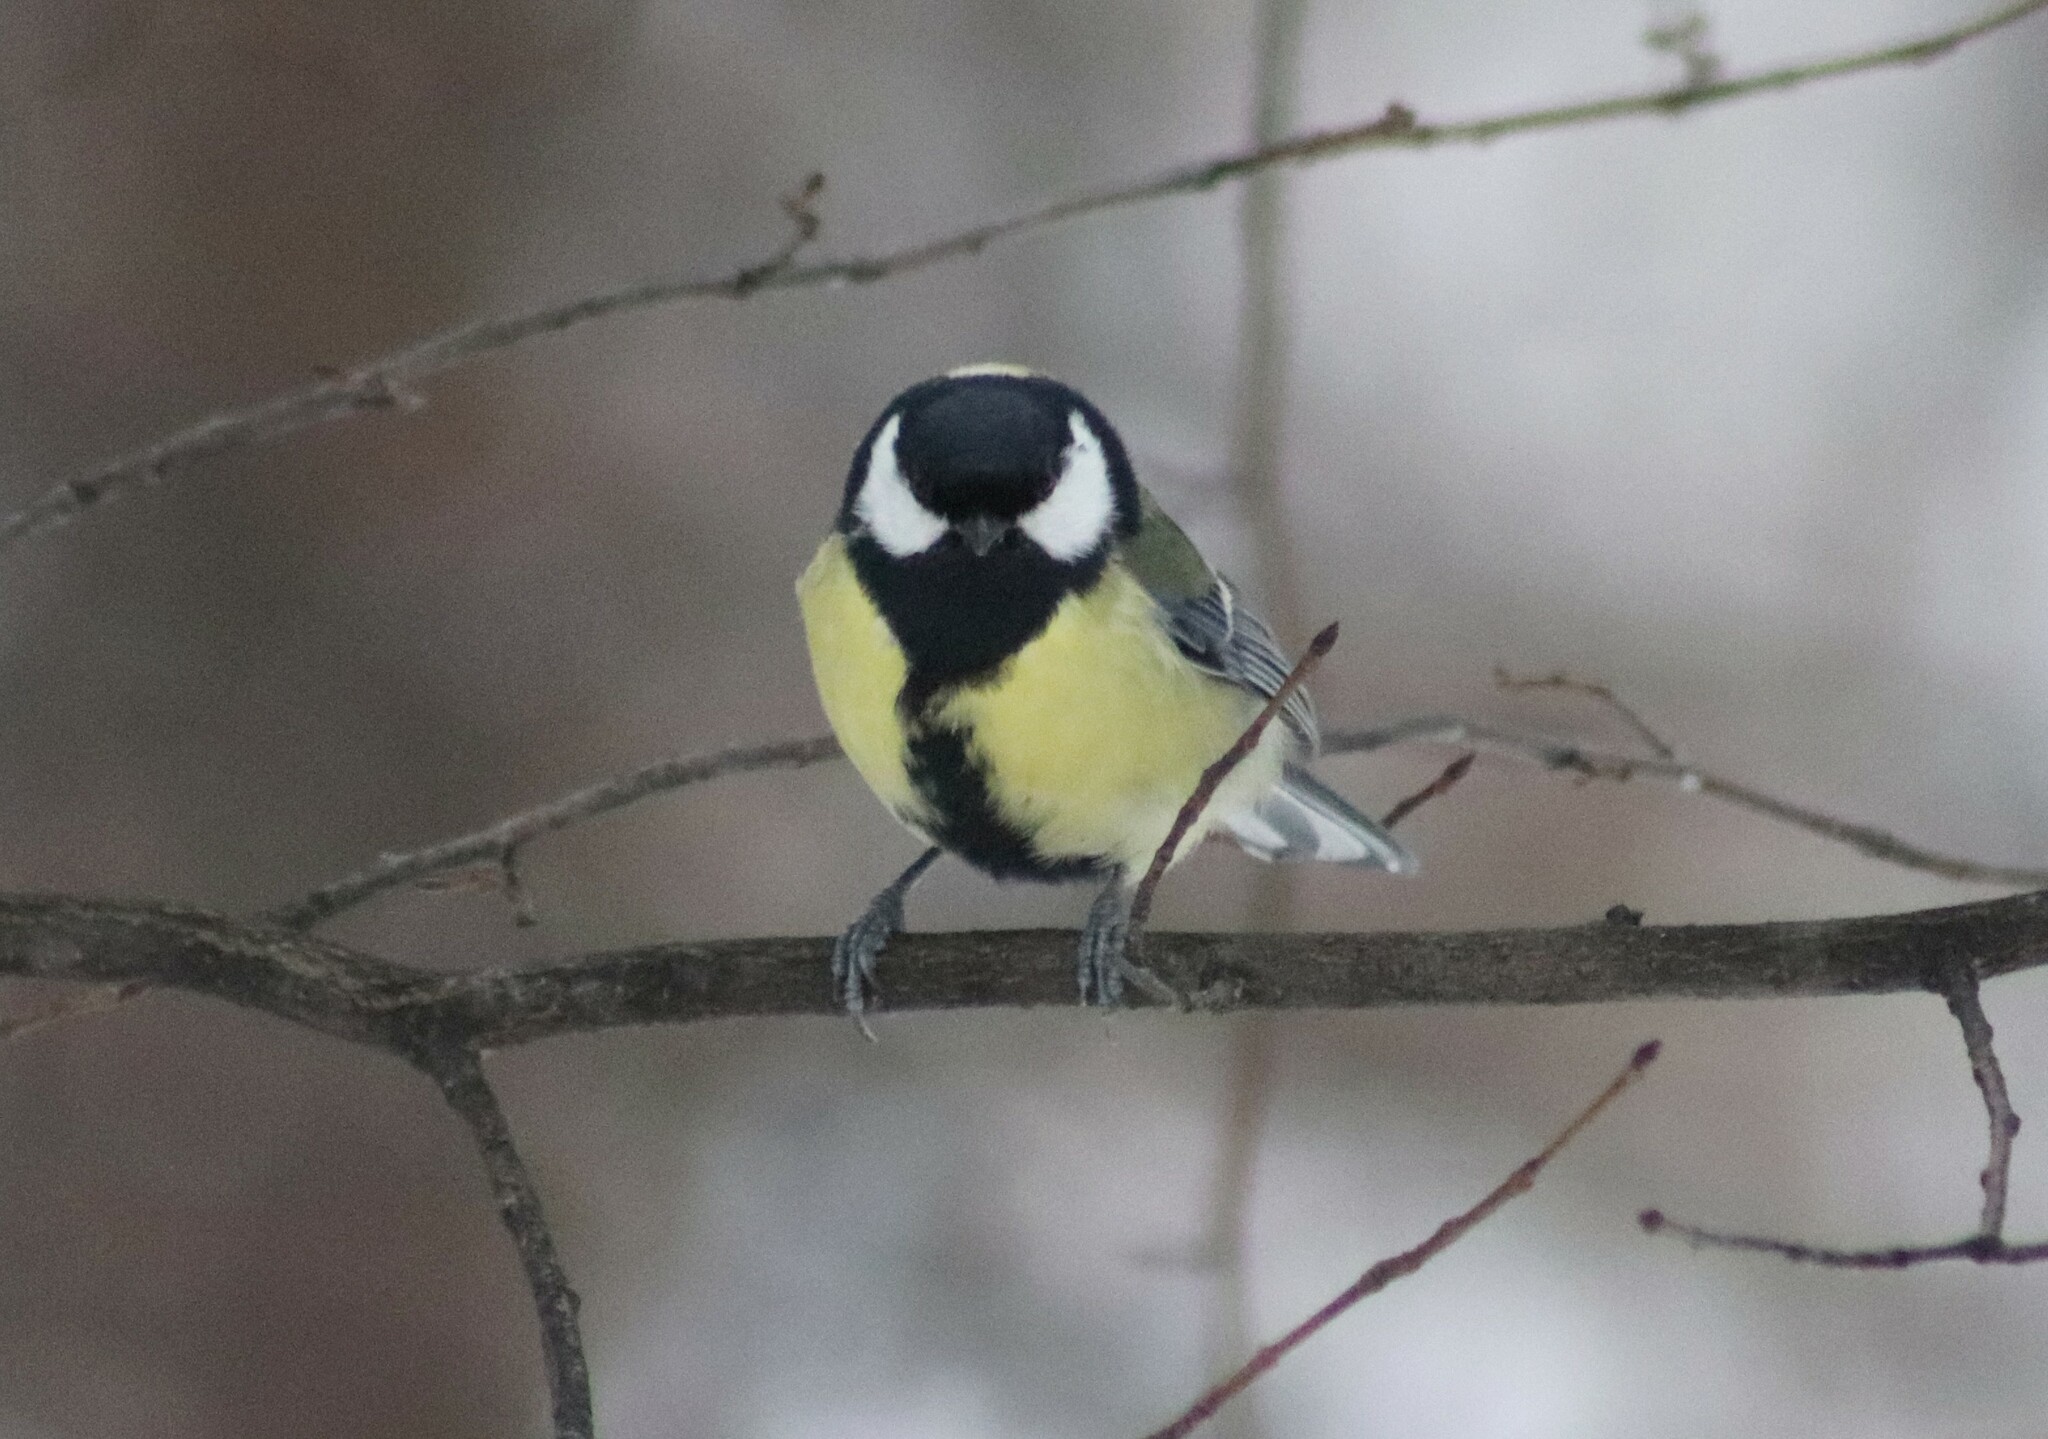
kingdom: Animalia
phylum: Chordata
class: Aves
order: Passeriformes
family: Paridae
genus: Parus
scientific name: Parus major
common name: Great tit
